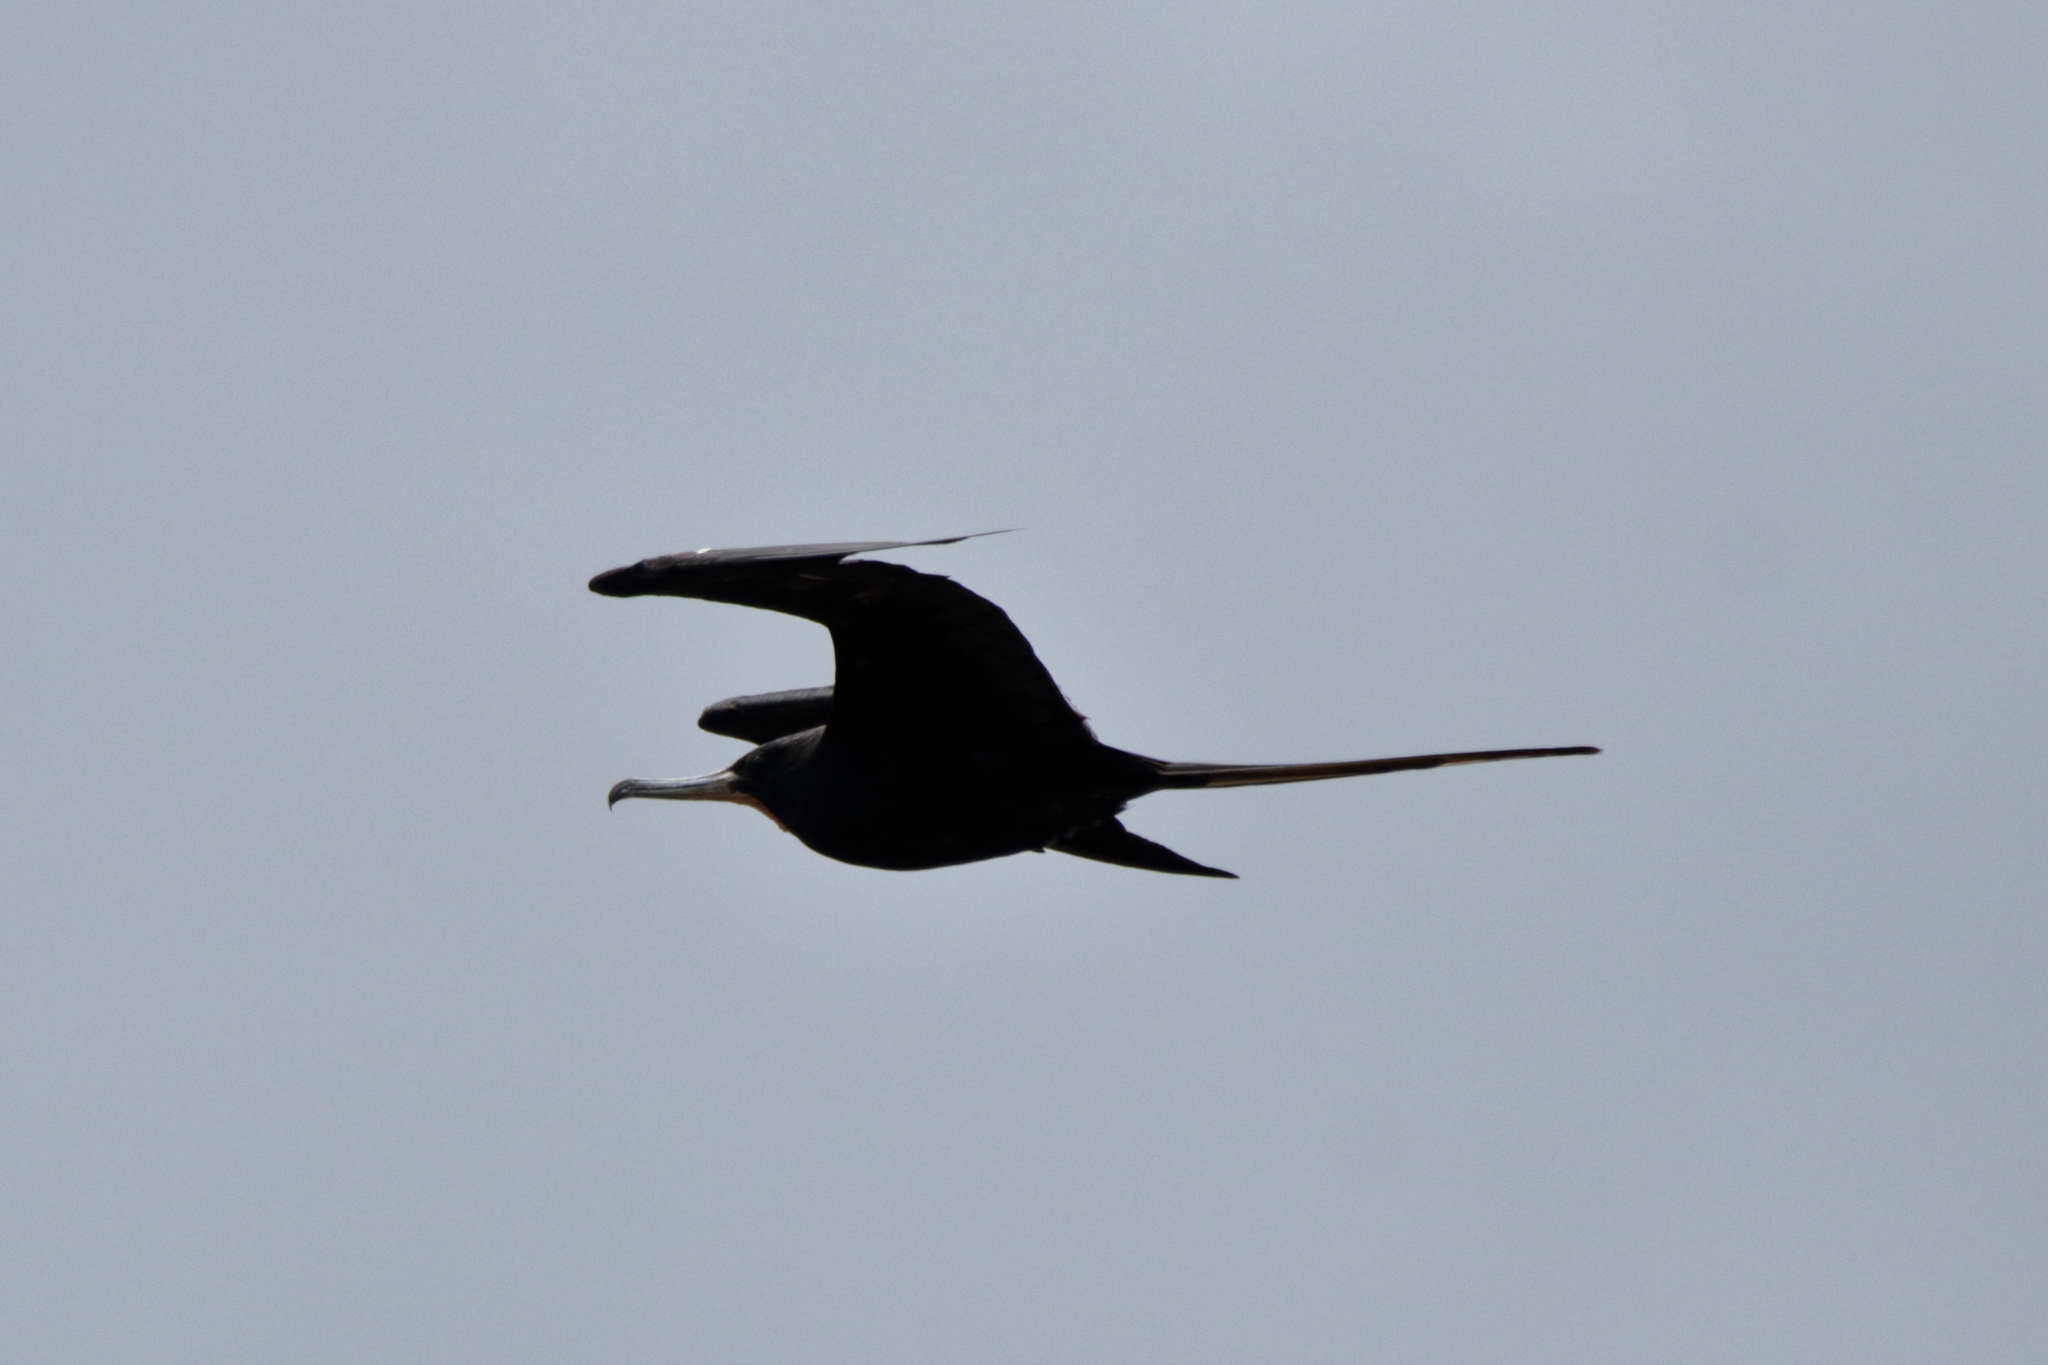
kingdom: Animalia
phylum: Chordata
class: Aves
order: Suliformes
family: Fregatidae
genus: Fregata
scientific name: Fregata magnificens
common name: Magnificent frigatebird
